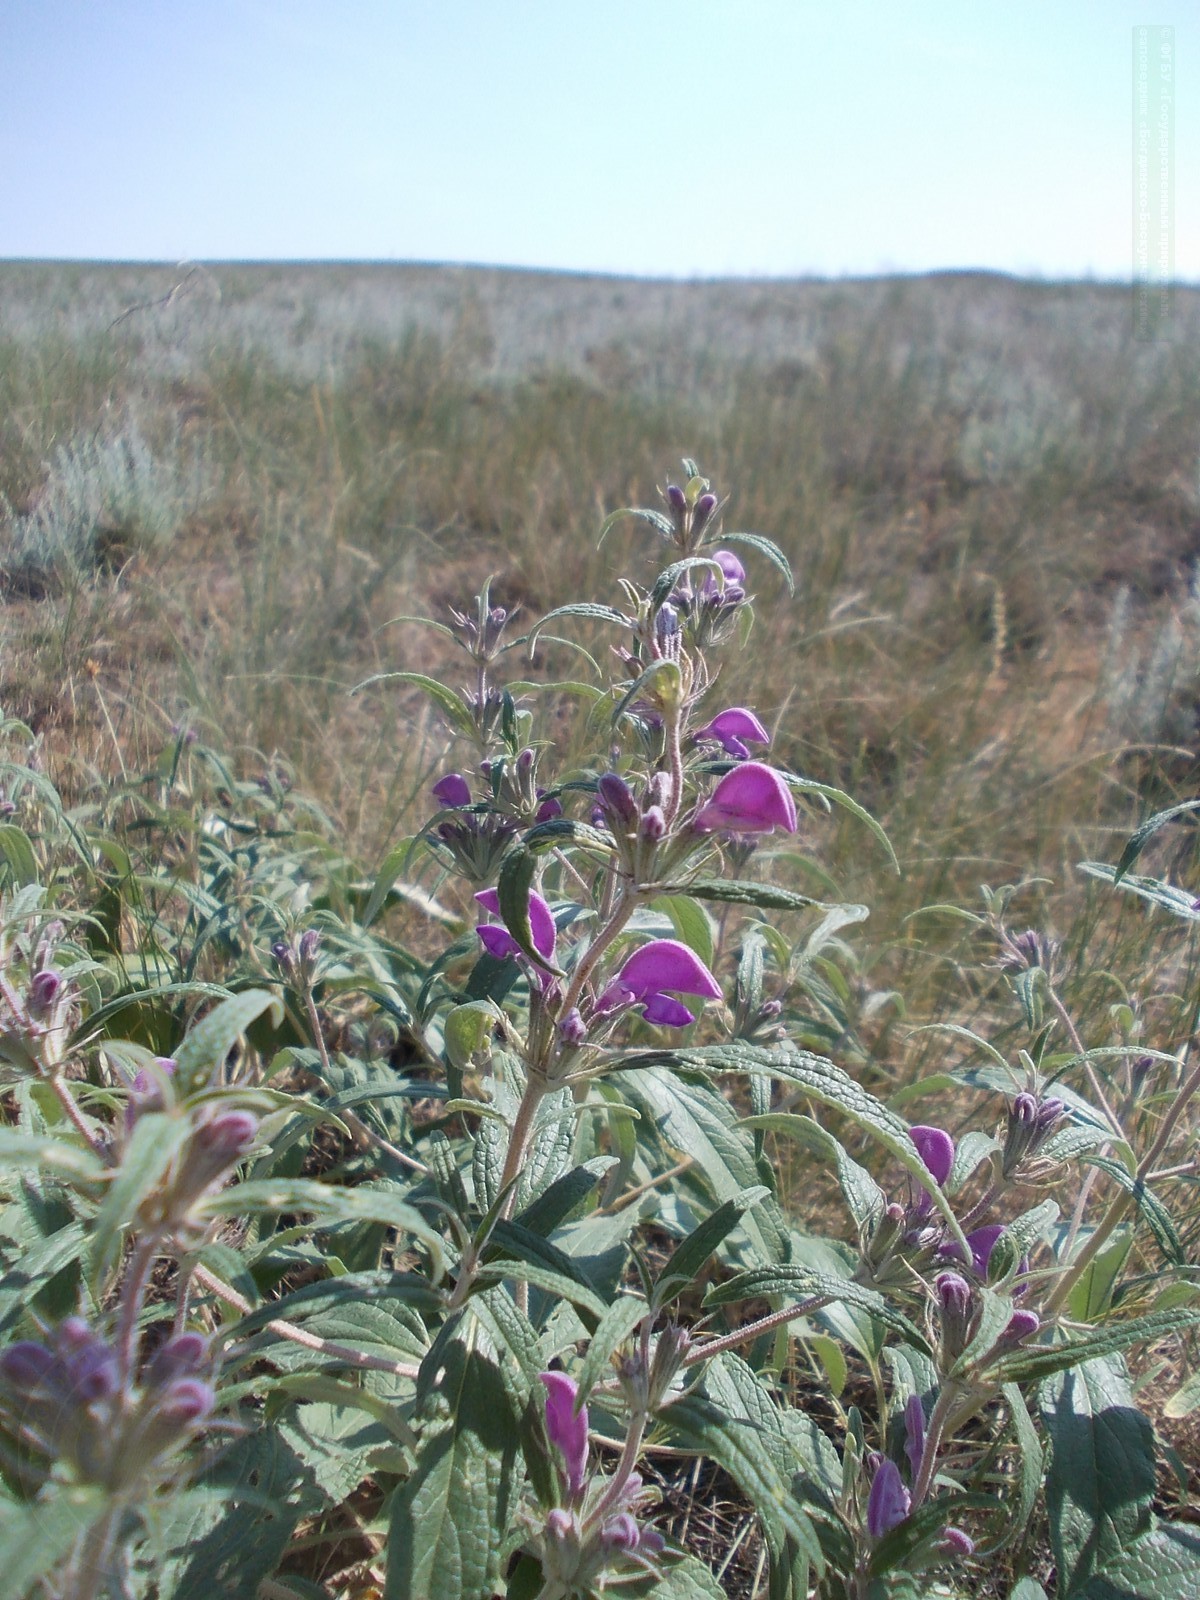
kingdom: Plantae
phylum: Tracheophyta
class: Magnoliopsida
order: Lamiales
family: Lamiaceae
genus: Phlomis
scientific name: Phlomis herba-venti
